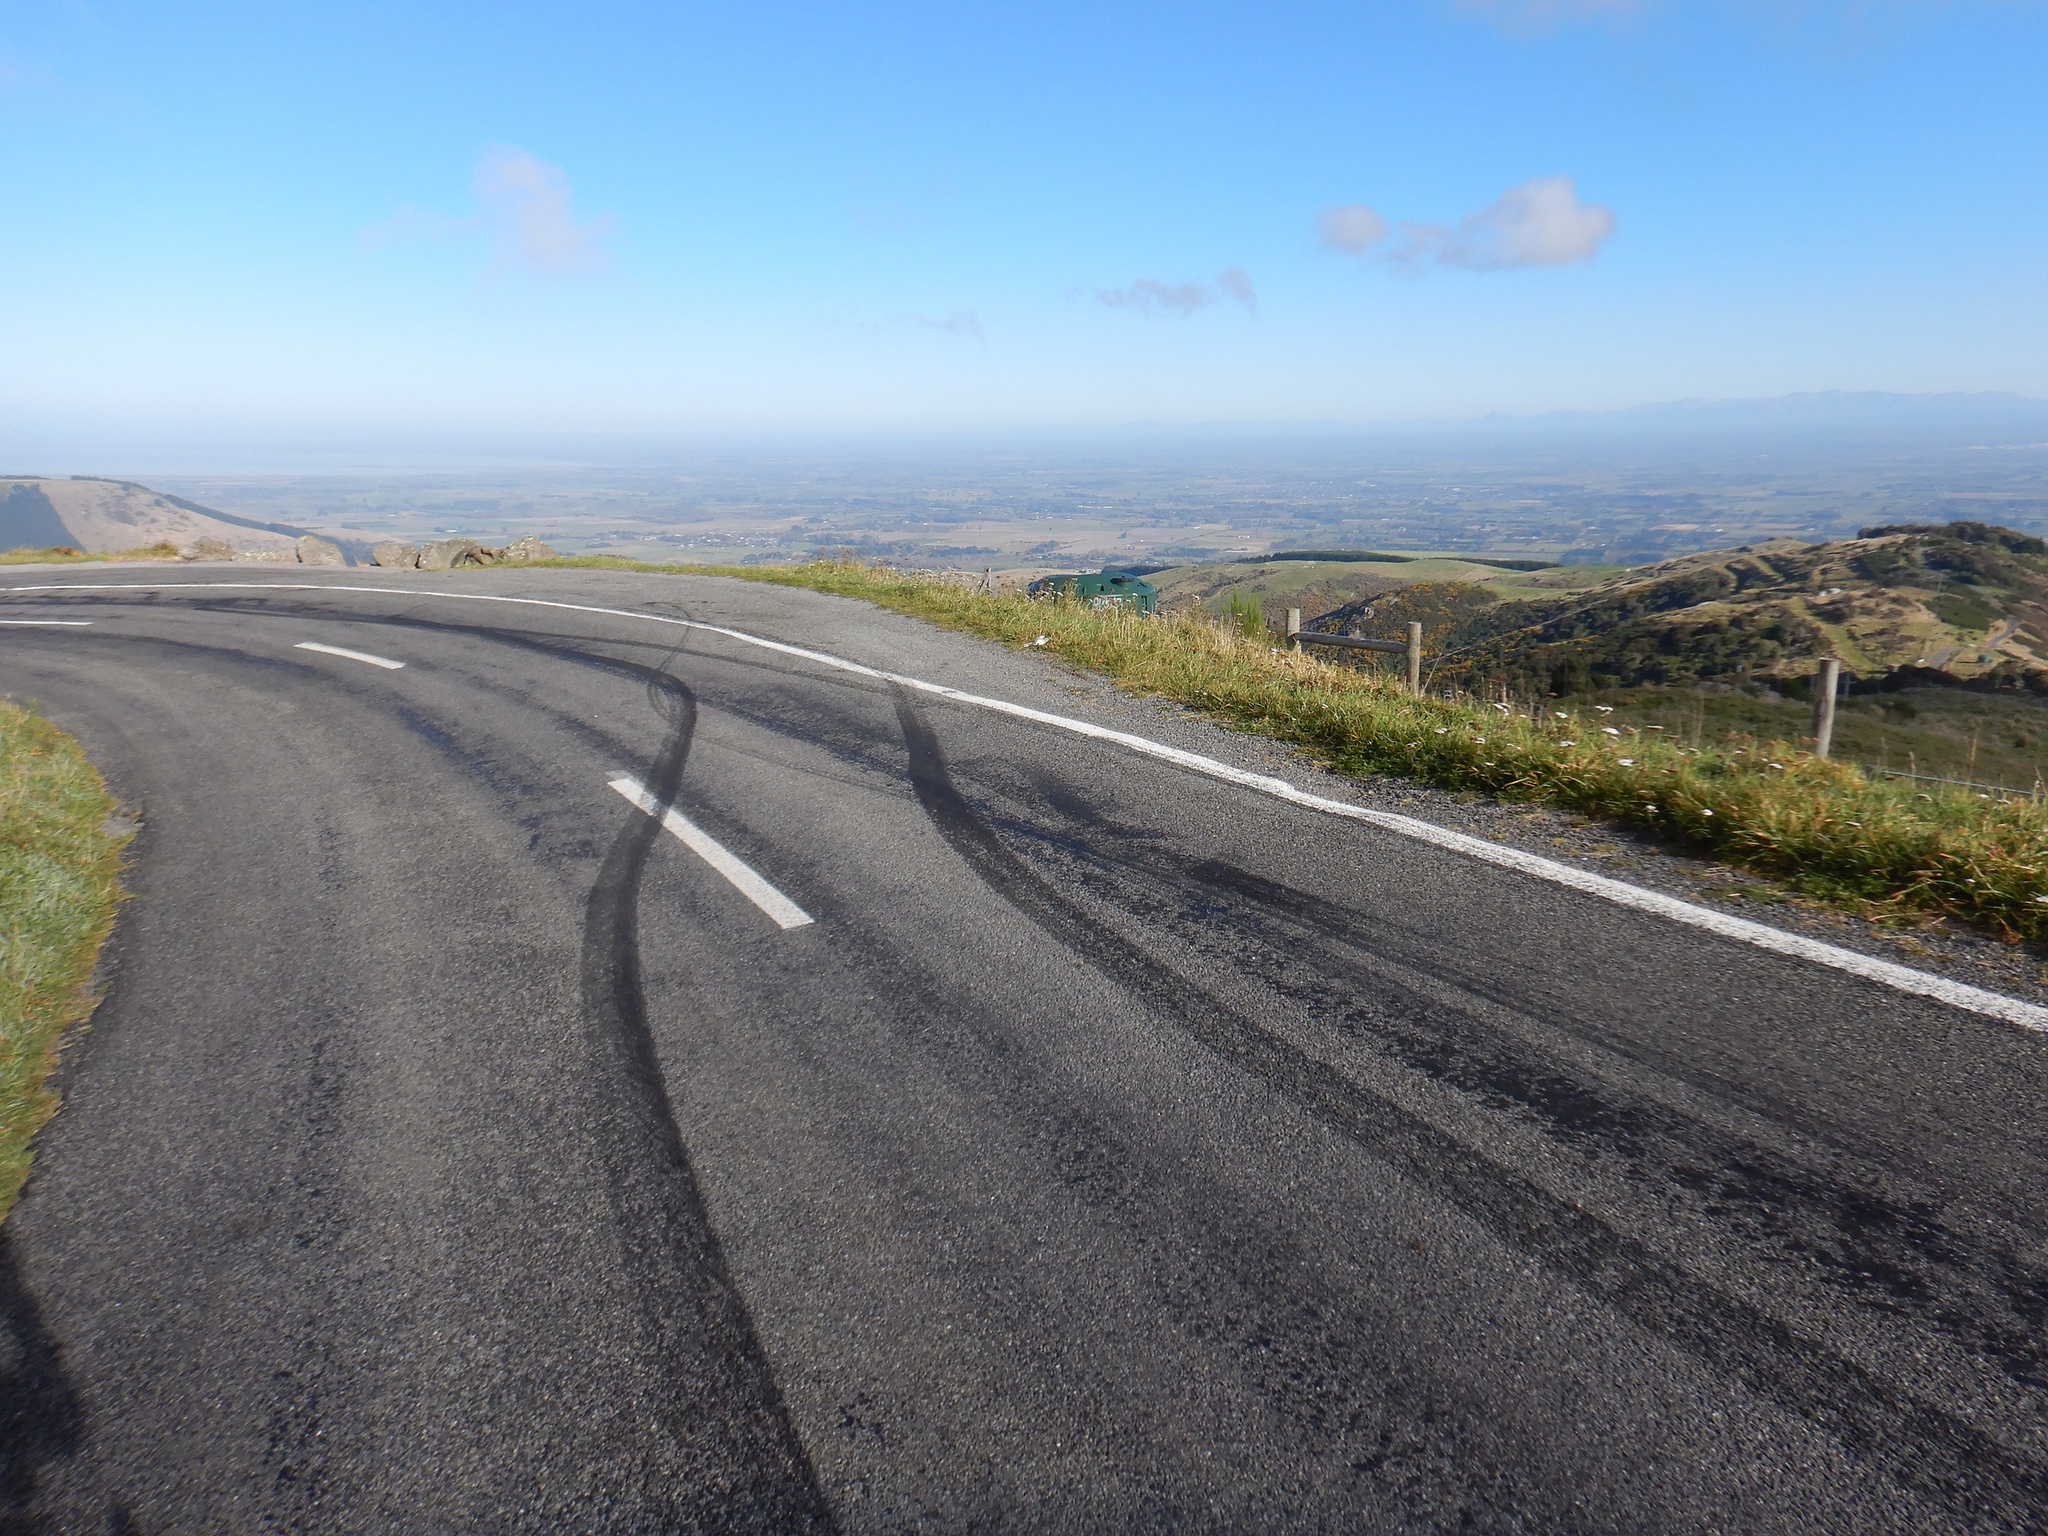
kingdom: Animalia
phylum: Chordata
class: Aves
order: Passeriformes
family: Motacillidae
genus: Anthus
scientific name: Anthus novaeseelandiae
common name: New zealand pipit
